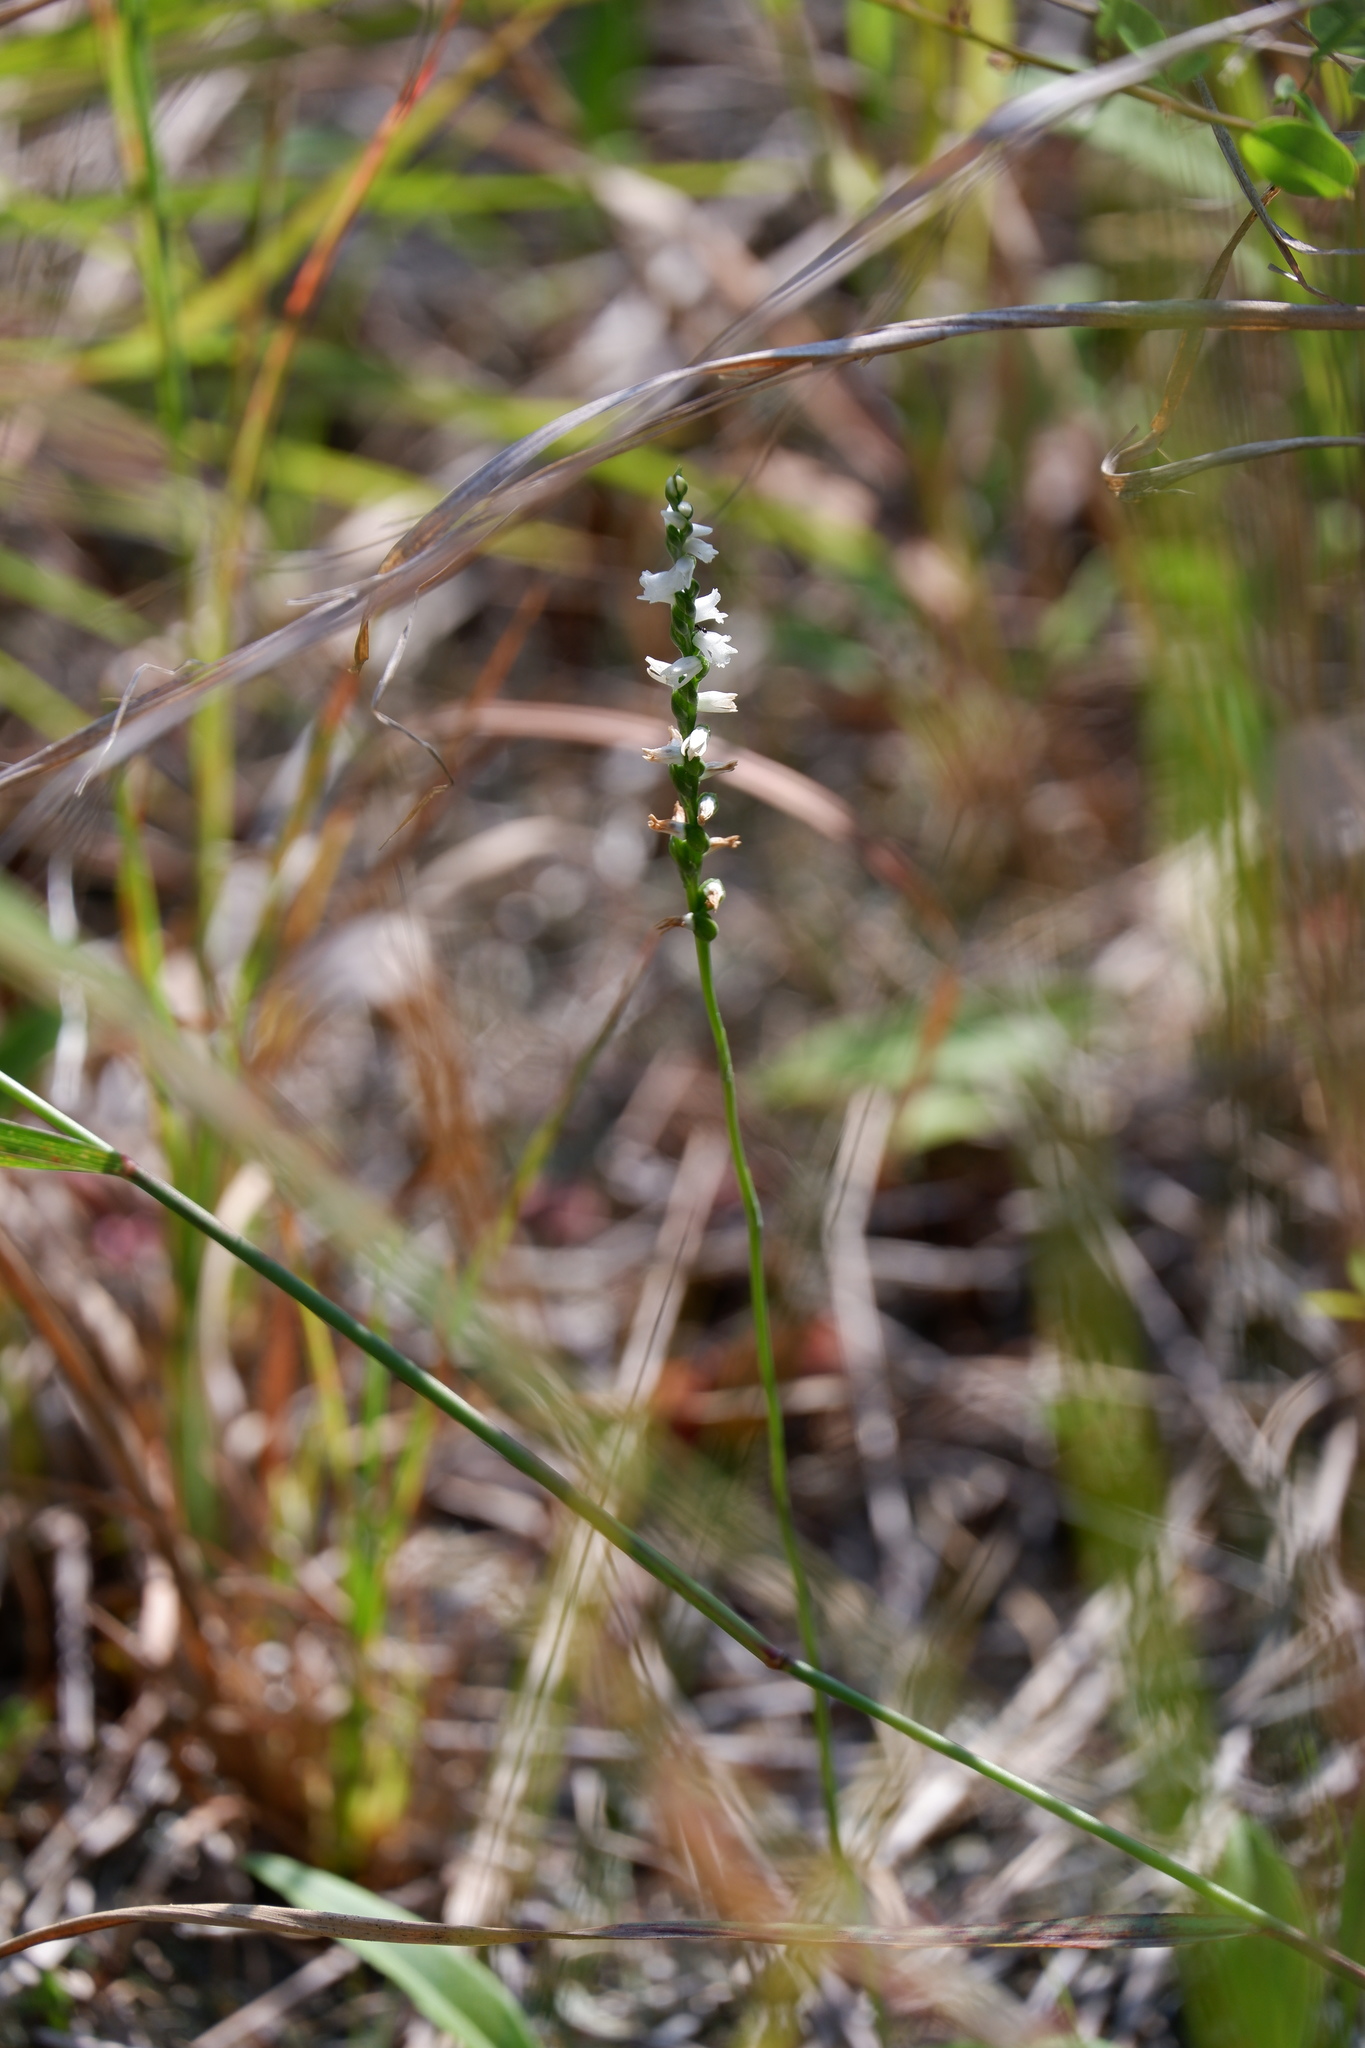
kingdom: Plantae
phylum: Tracheophyta
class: Liliopsida
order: Asparagales
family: Orchidaceae
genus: Spiranthes
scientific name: Spiranthes tuberosa
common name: Little ladies'-tresses
